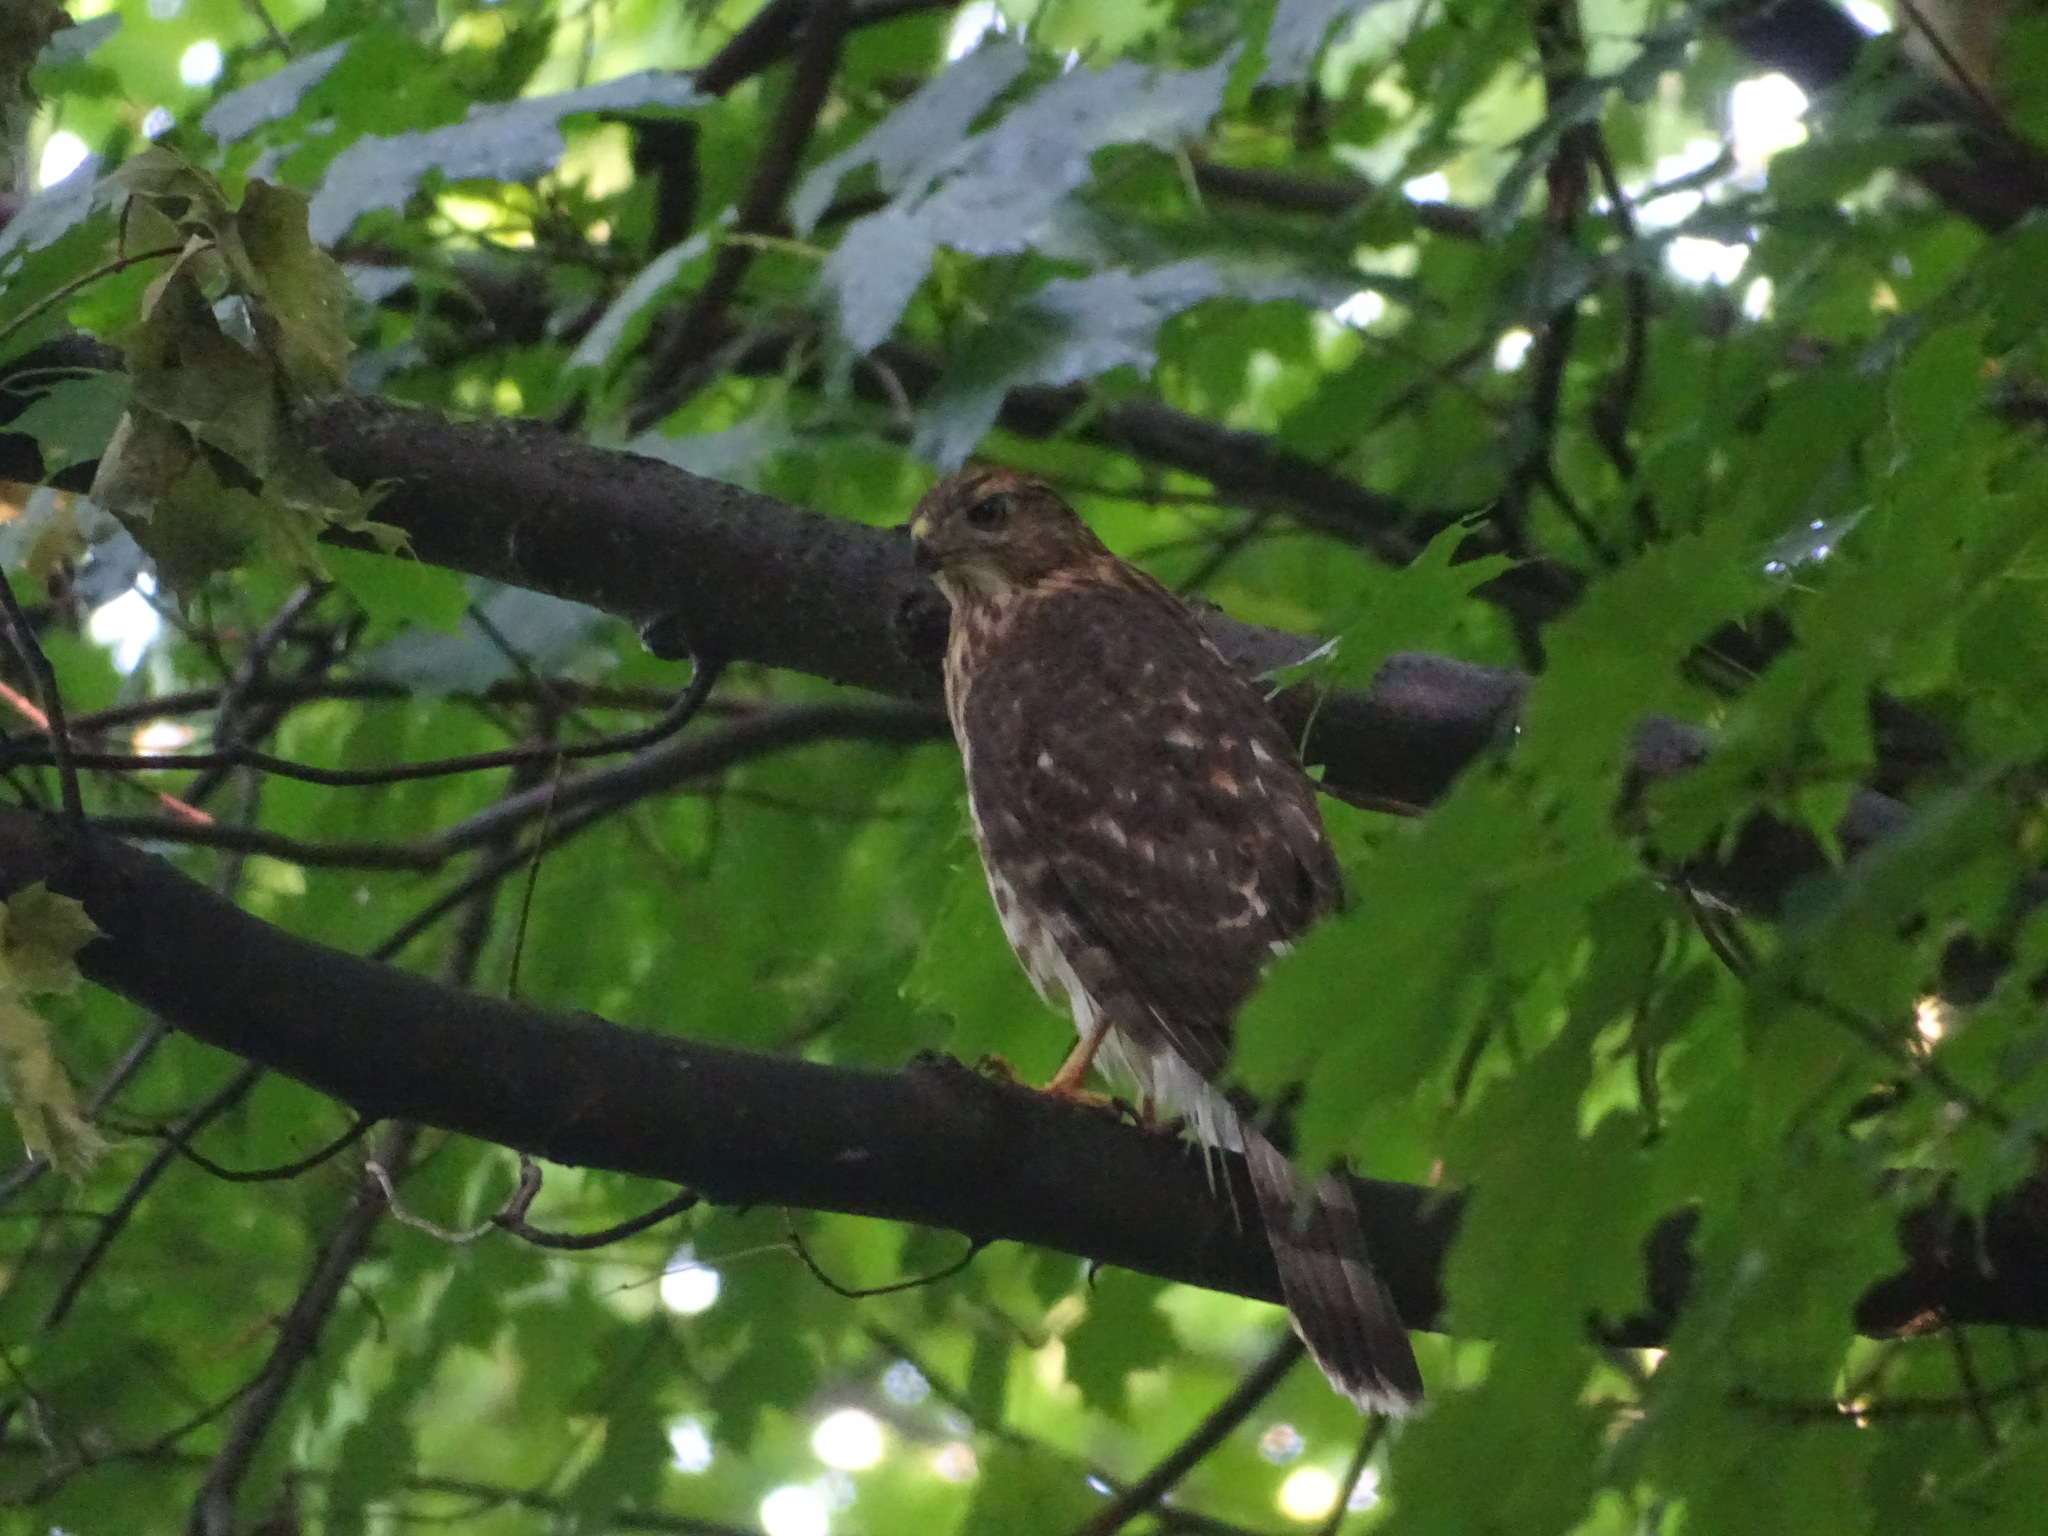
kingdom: Animalia
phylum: Chordata
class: Aves
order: Accipitriformes
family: Accipitridae
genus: Accipiter
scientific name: Accipiter cooperii
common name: Cooper's hawk
